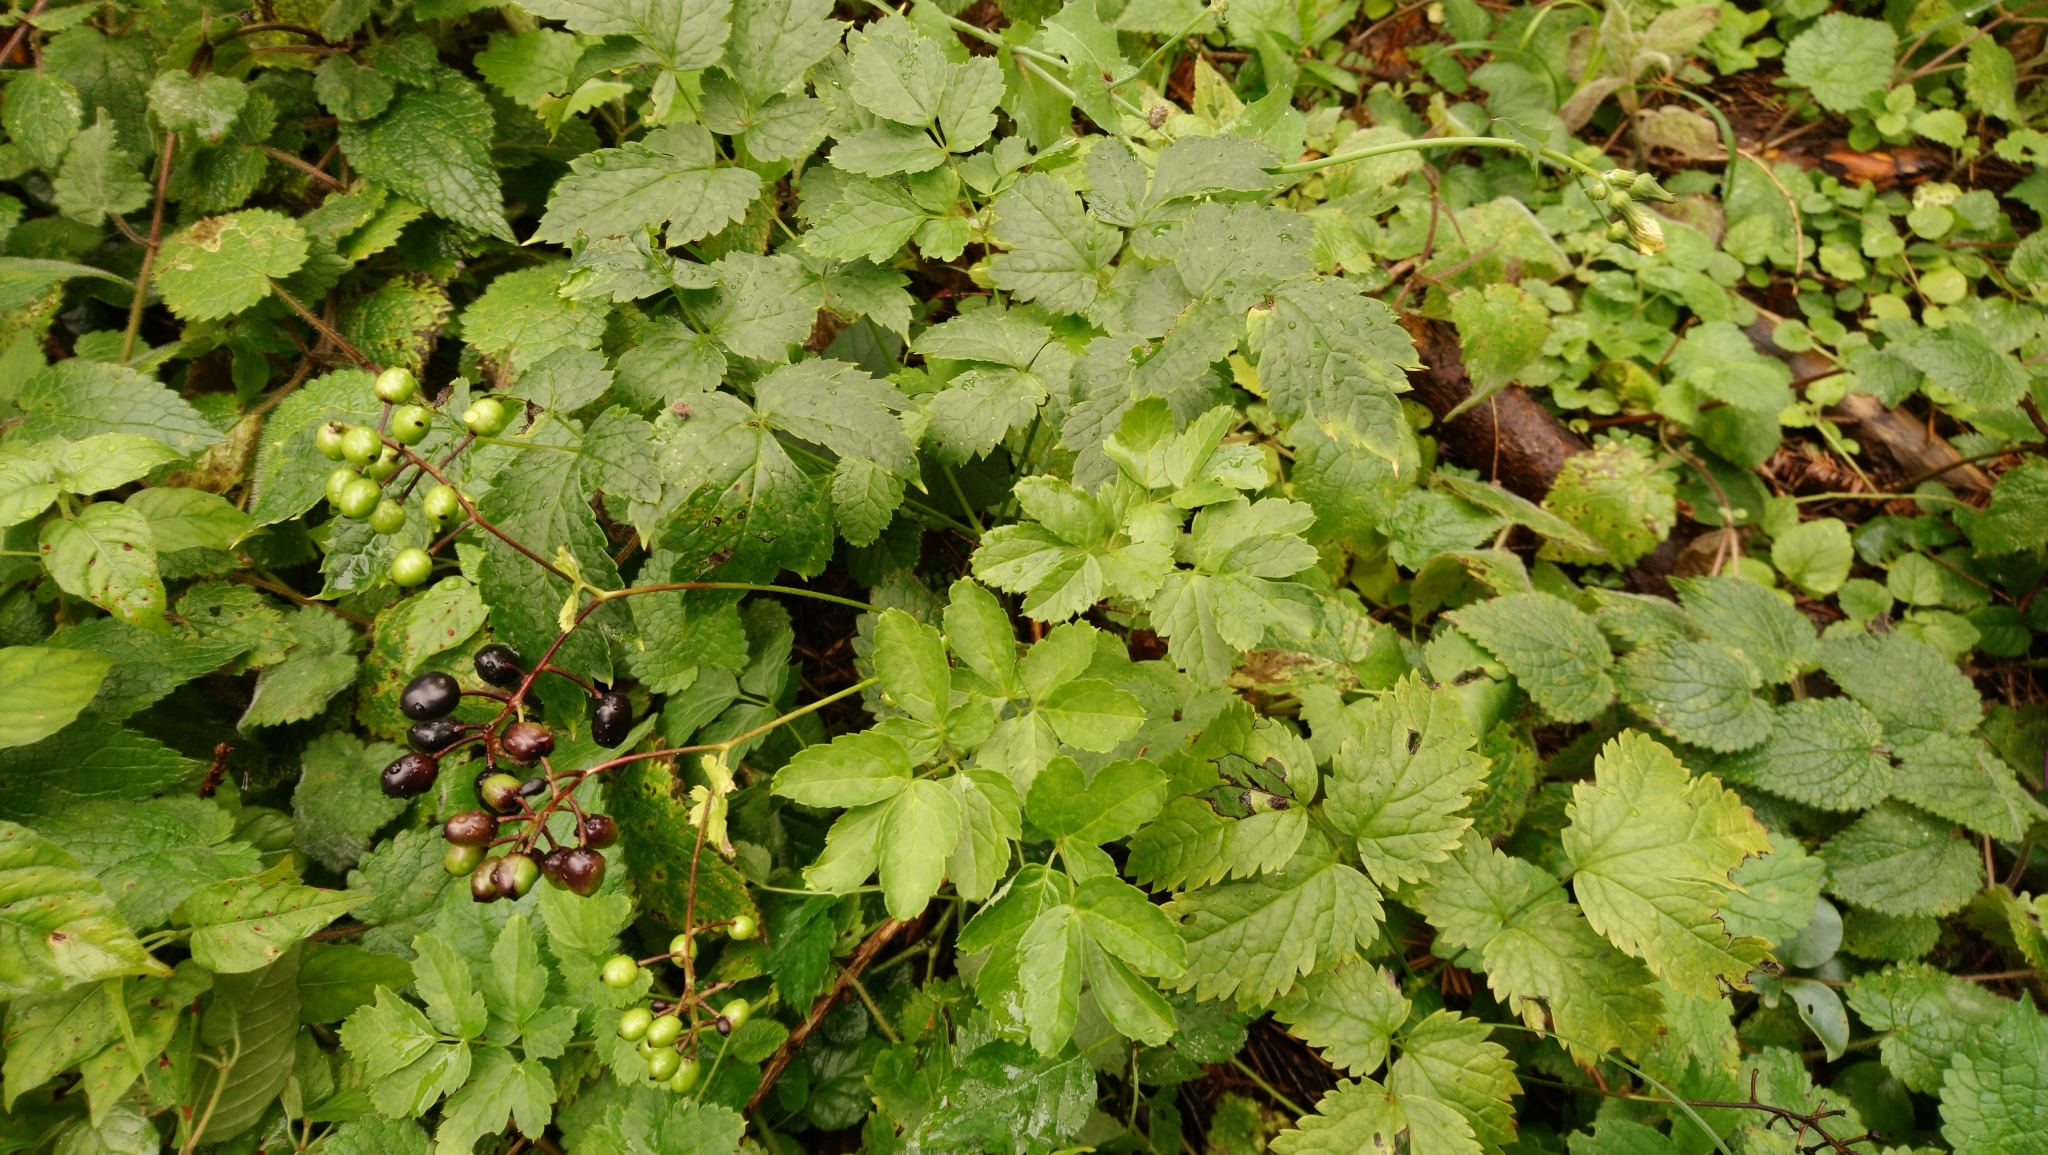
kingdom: Plantae
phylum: Tracheophyta
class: Magnoliopsida
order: Ranunculales
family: Ranunculaceae
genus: Actaea
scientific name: Actaea spicata
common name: Baneberry
